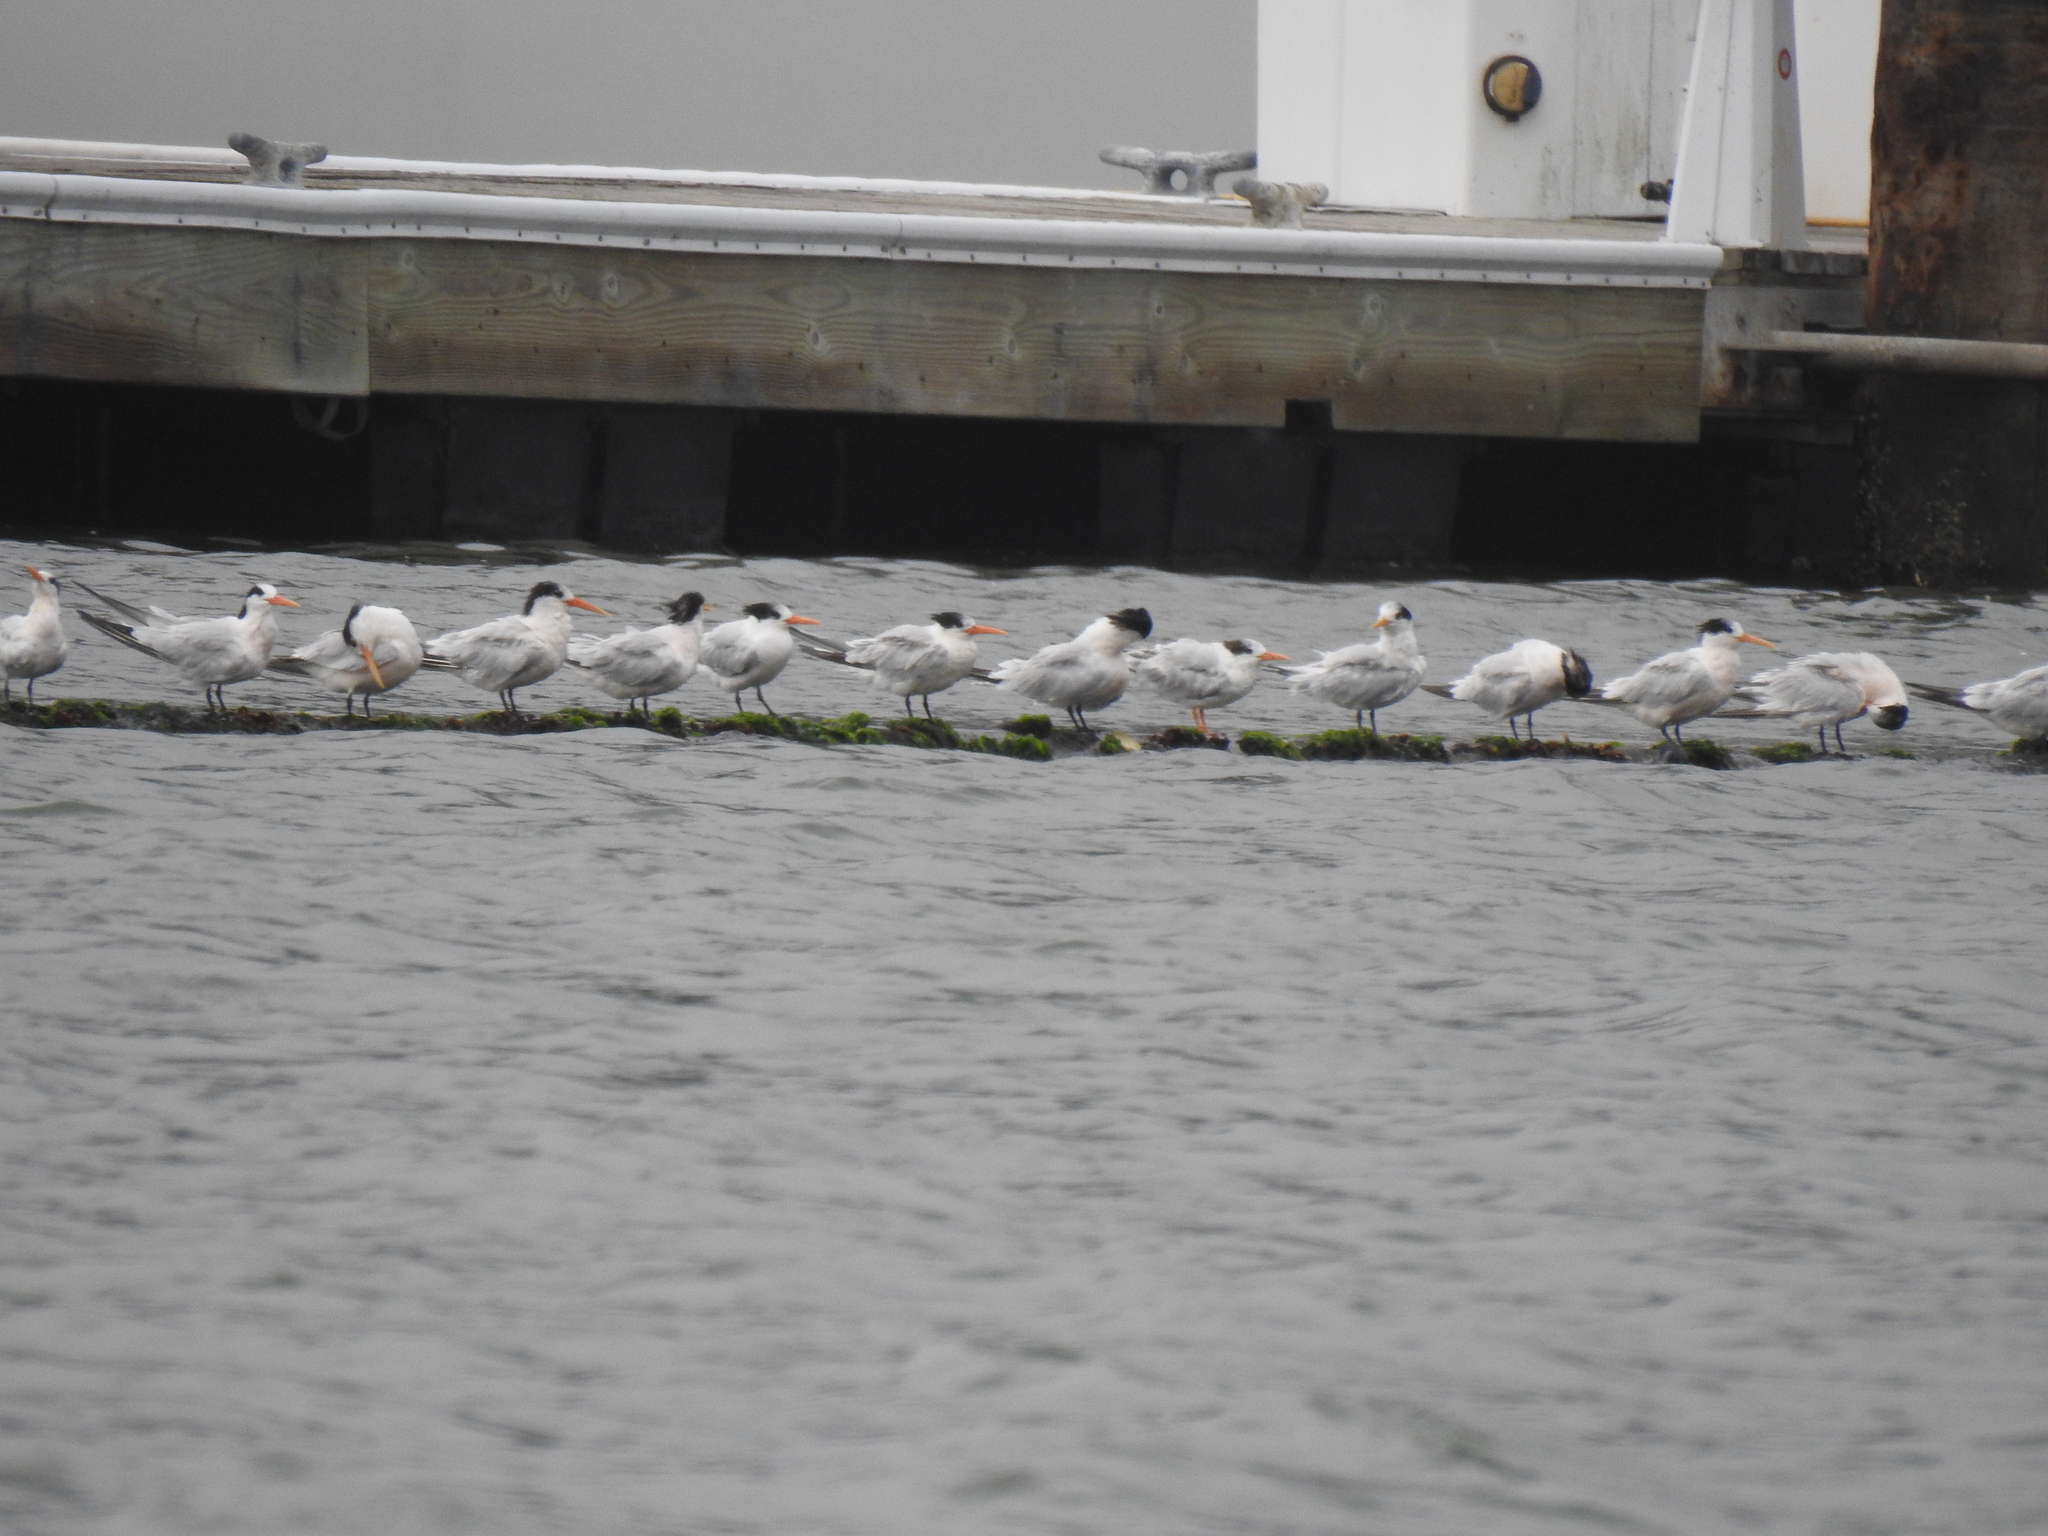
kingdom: Animalia
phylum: Chordata
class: Aves
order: Charadriiformes
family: Laridae
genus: Thalasseus
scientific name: Thalasseus elegans
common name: Elegant tern
